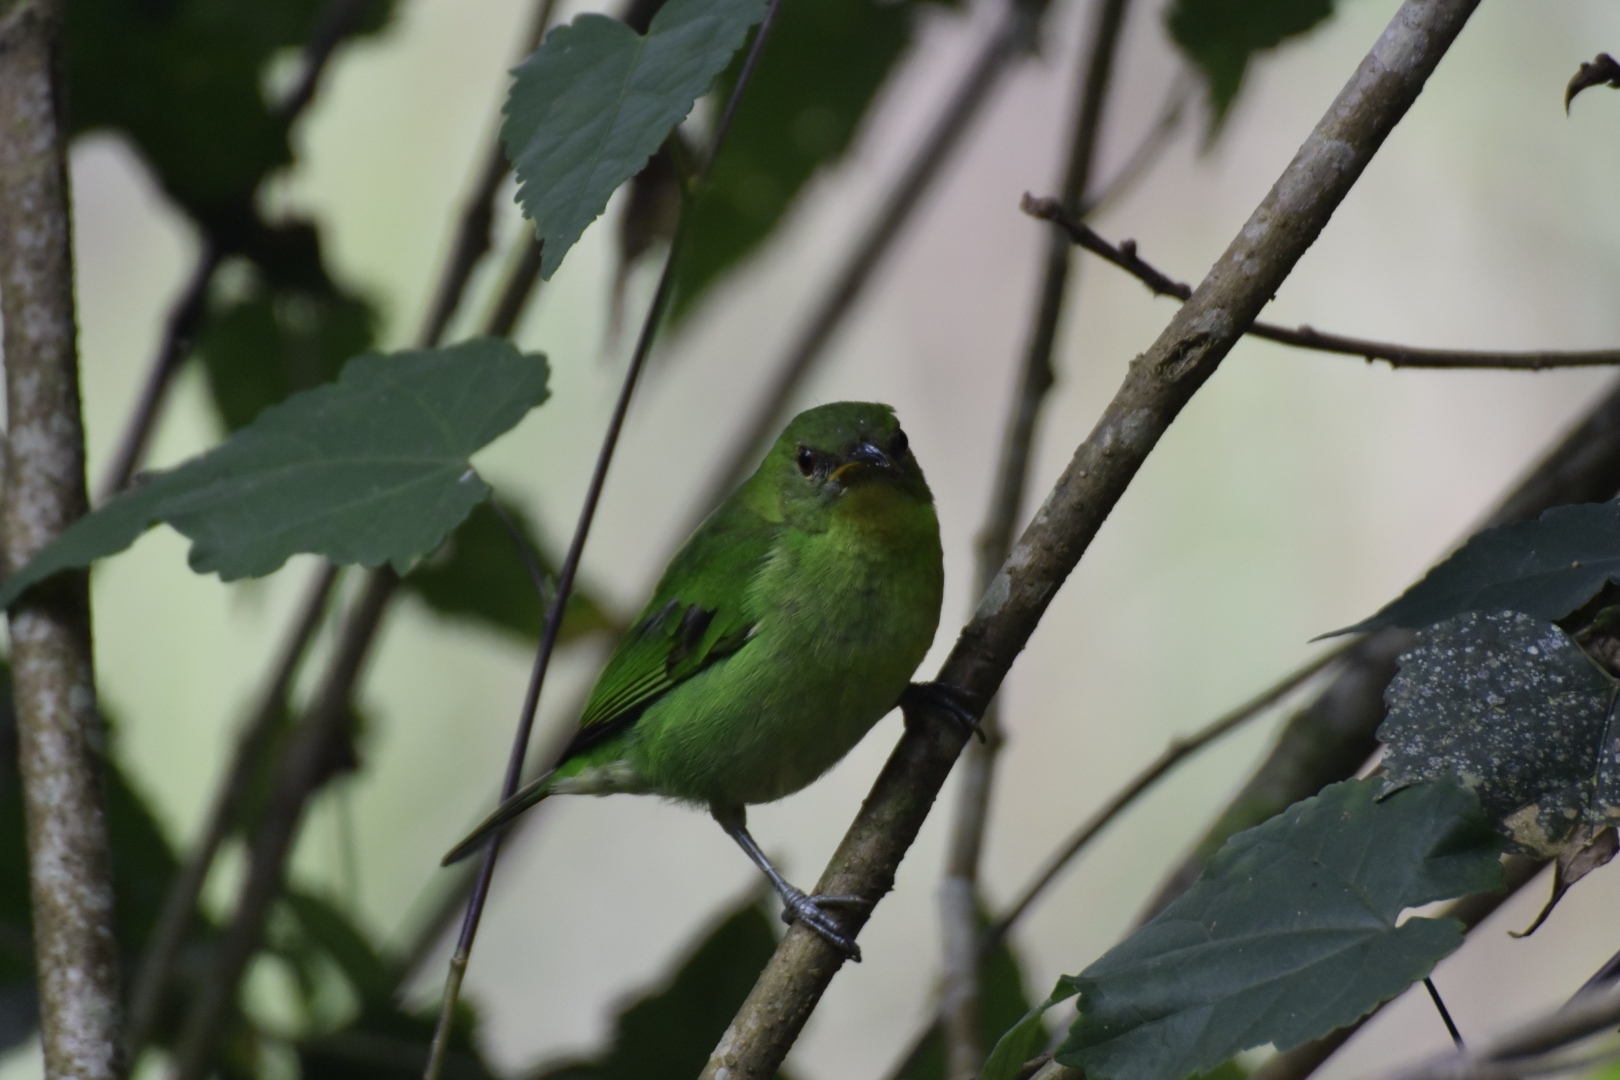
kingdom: Animalia
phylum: Chordata
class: Aves
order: Passeriformes
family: Thraupidae
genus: Chlorophanes
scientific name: Chlorophanes spiza
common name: Green honeycreeper
